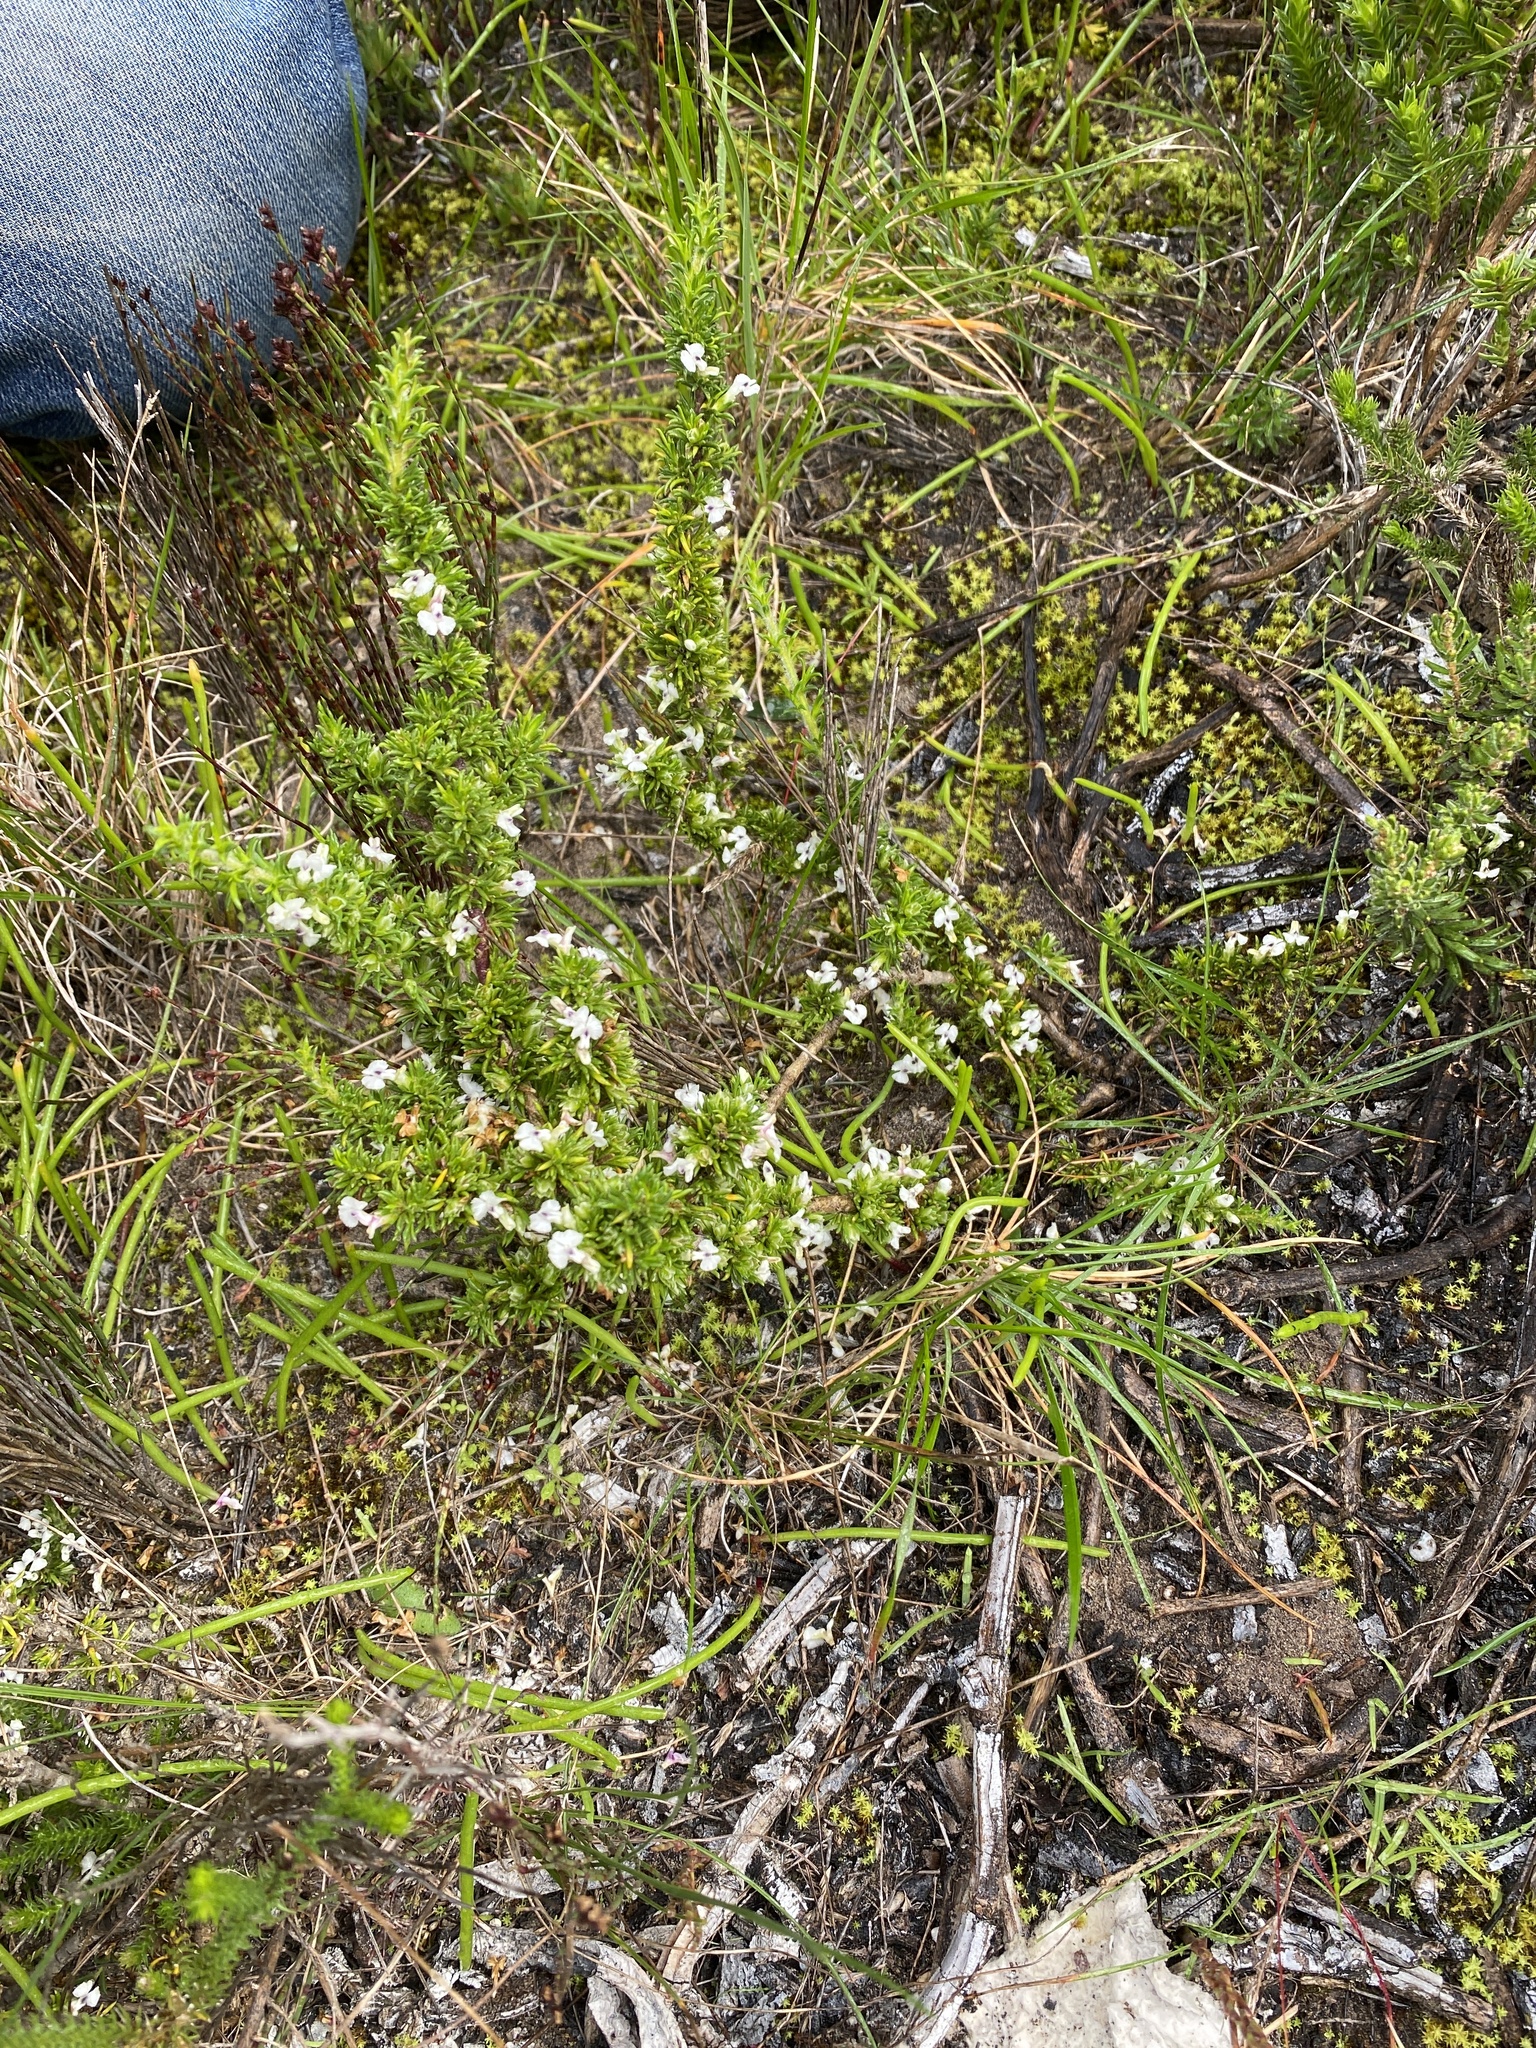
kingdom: Plantae
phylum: Tracheophyta
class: Magnoliopsida
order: Fabales
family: Polygalaceae
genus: Muraltia
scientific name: Muraltia pappeana
